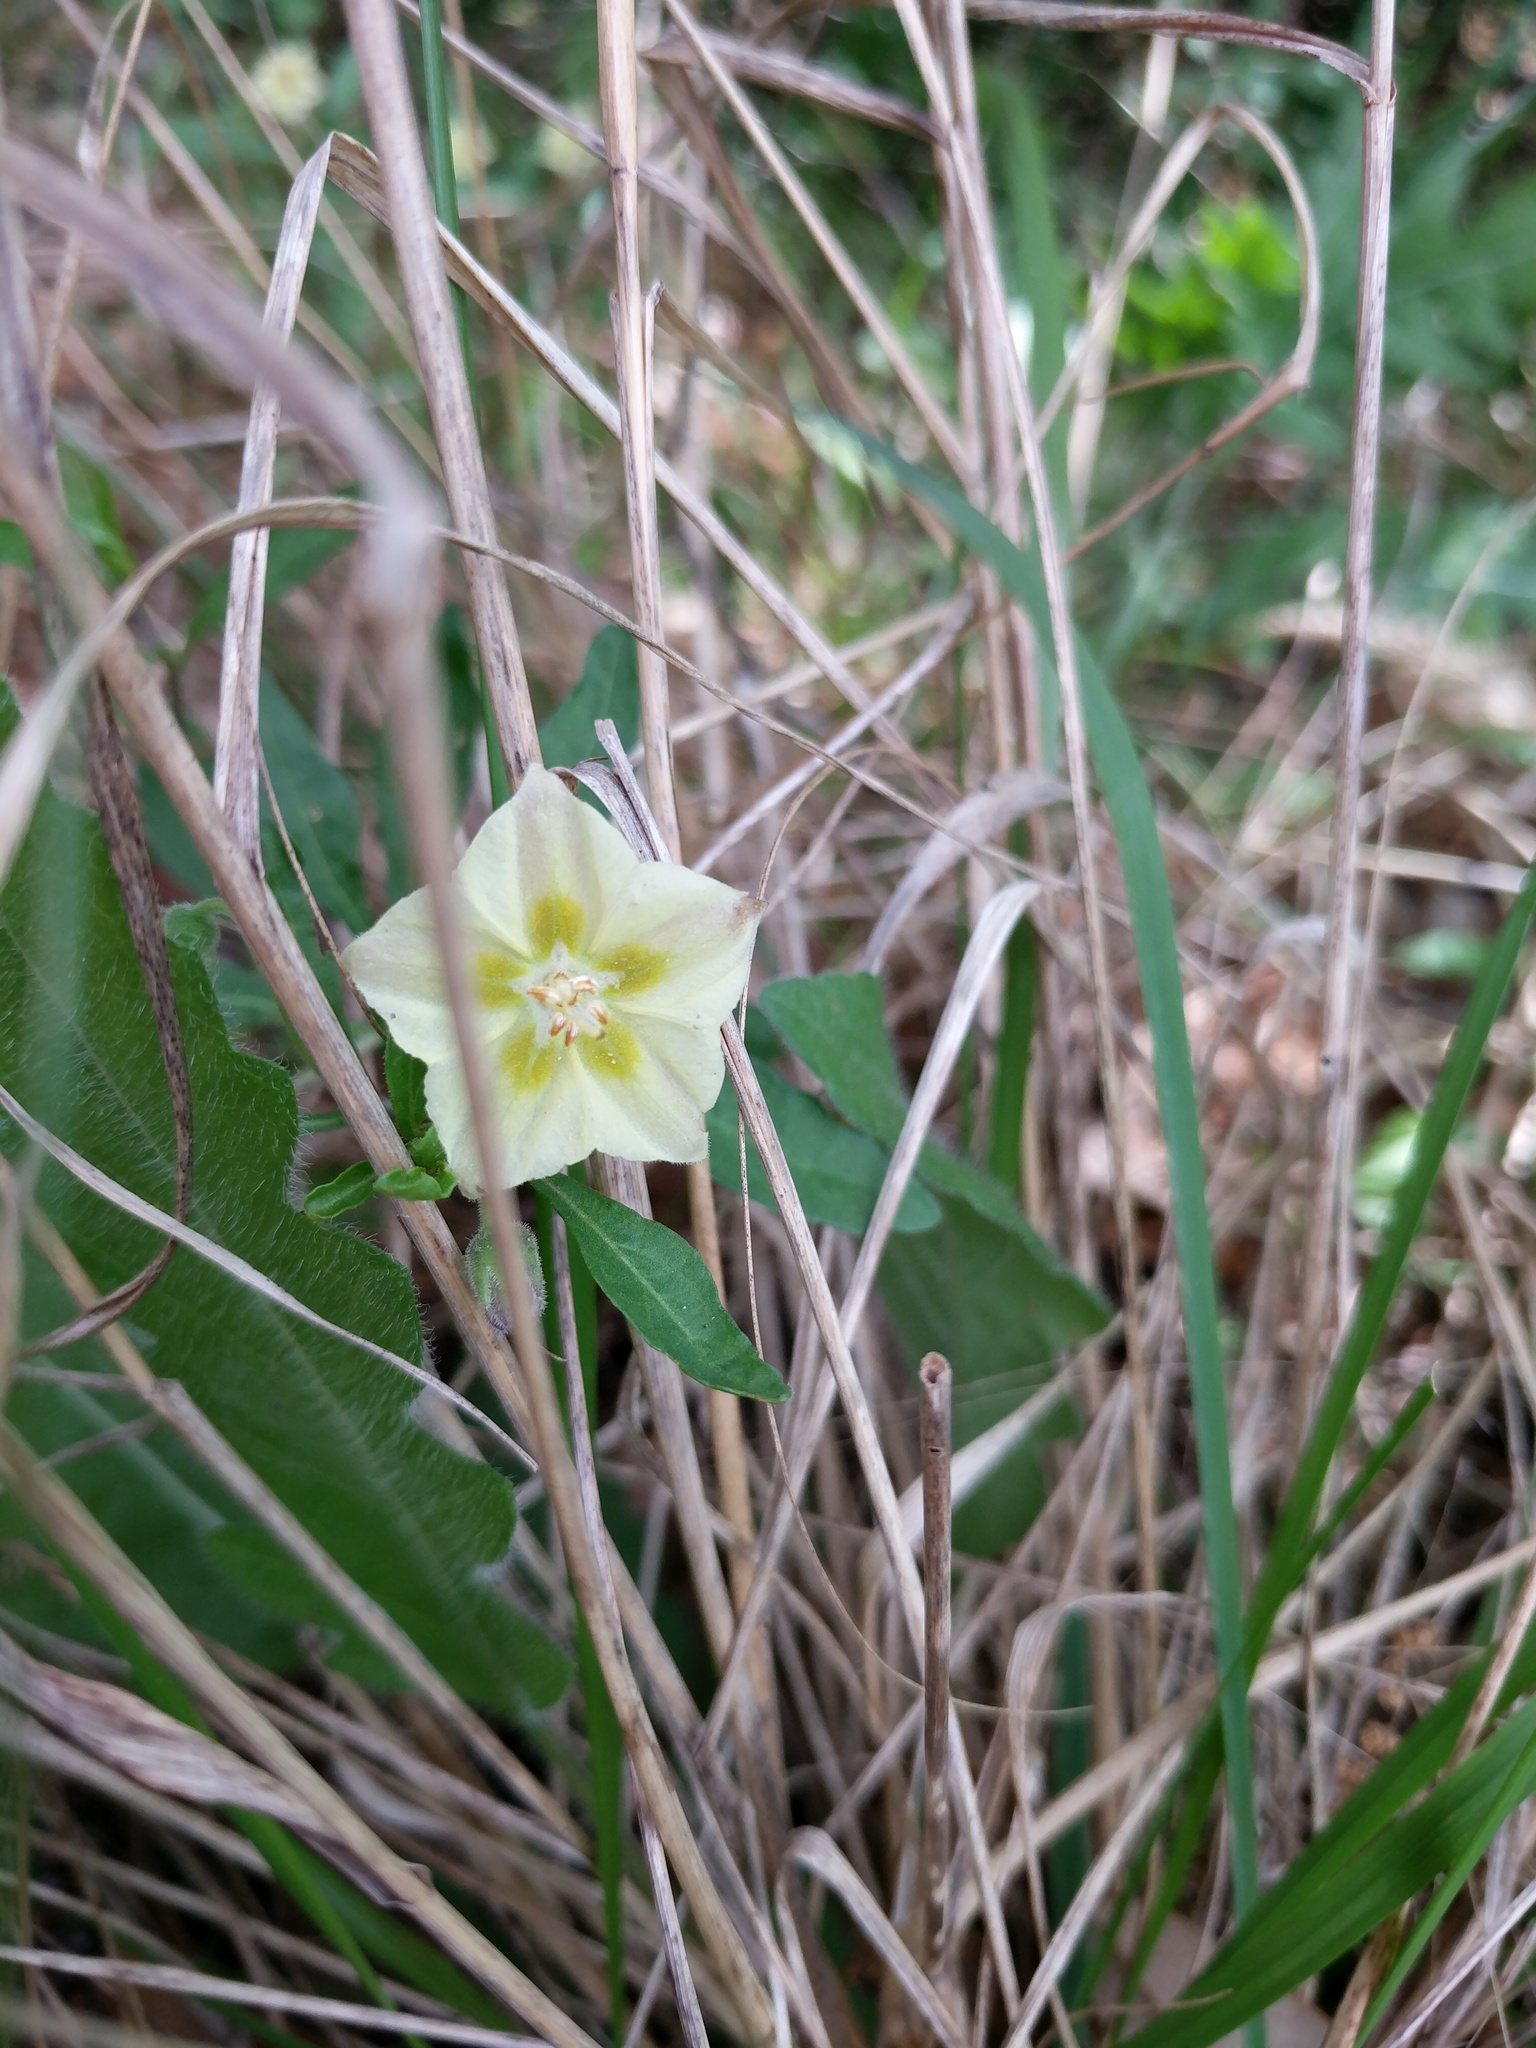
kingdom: Plantae
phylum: Tracheophyta
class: Magnoliopsida
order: Solanales
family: Solanaceae
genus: Chamaesaracha
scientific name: Chamaesaracha edwardsiana
